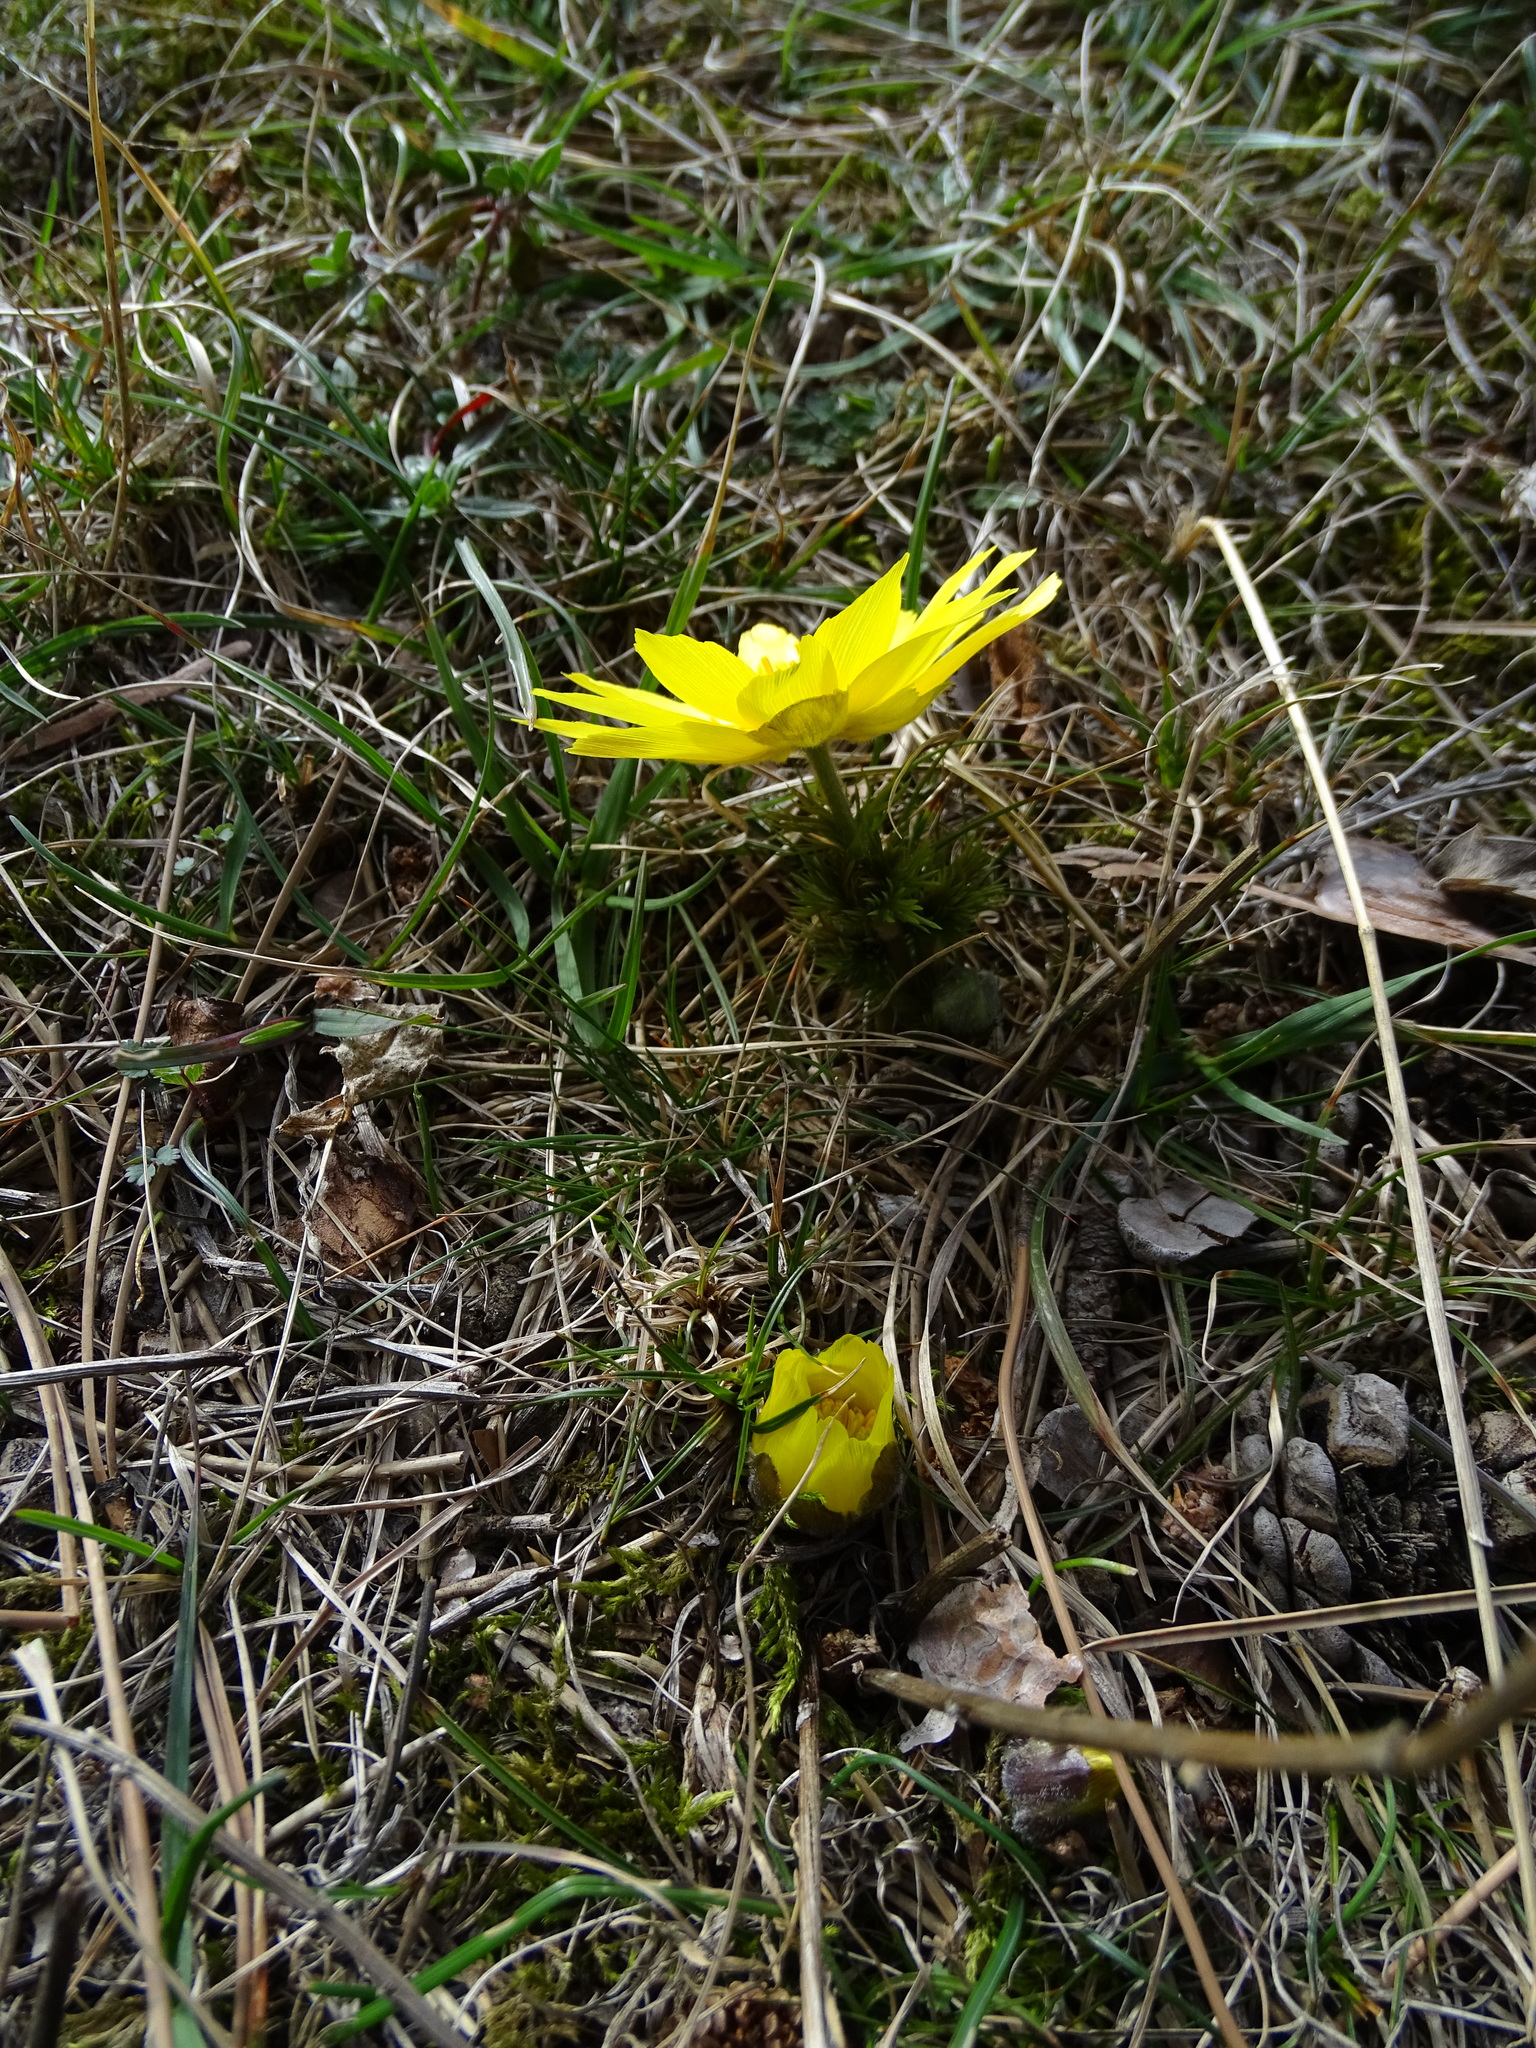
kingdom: Plantae
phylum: Tracheophyta
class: Magnoliopsida
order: Ranunculales
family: Ranunculaceae
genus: Adonis
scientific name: Adonis vernalis
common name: Yellow pheasants-eye
